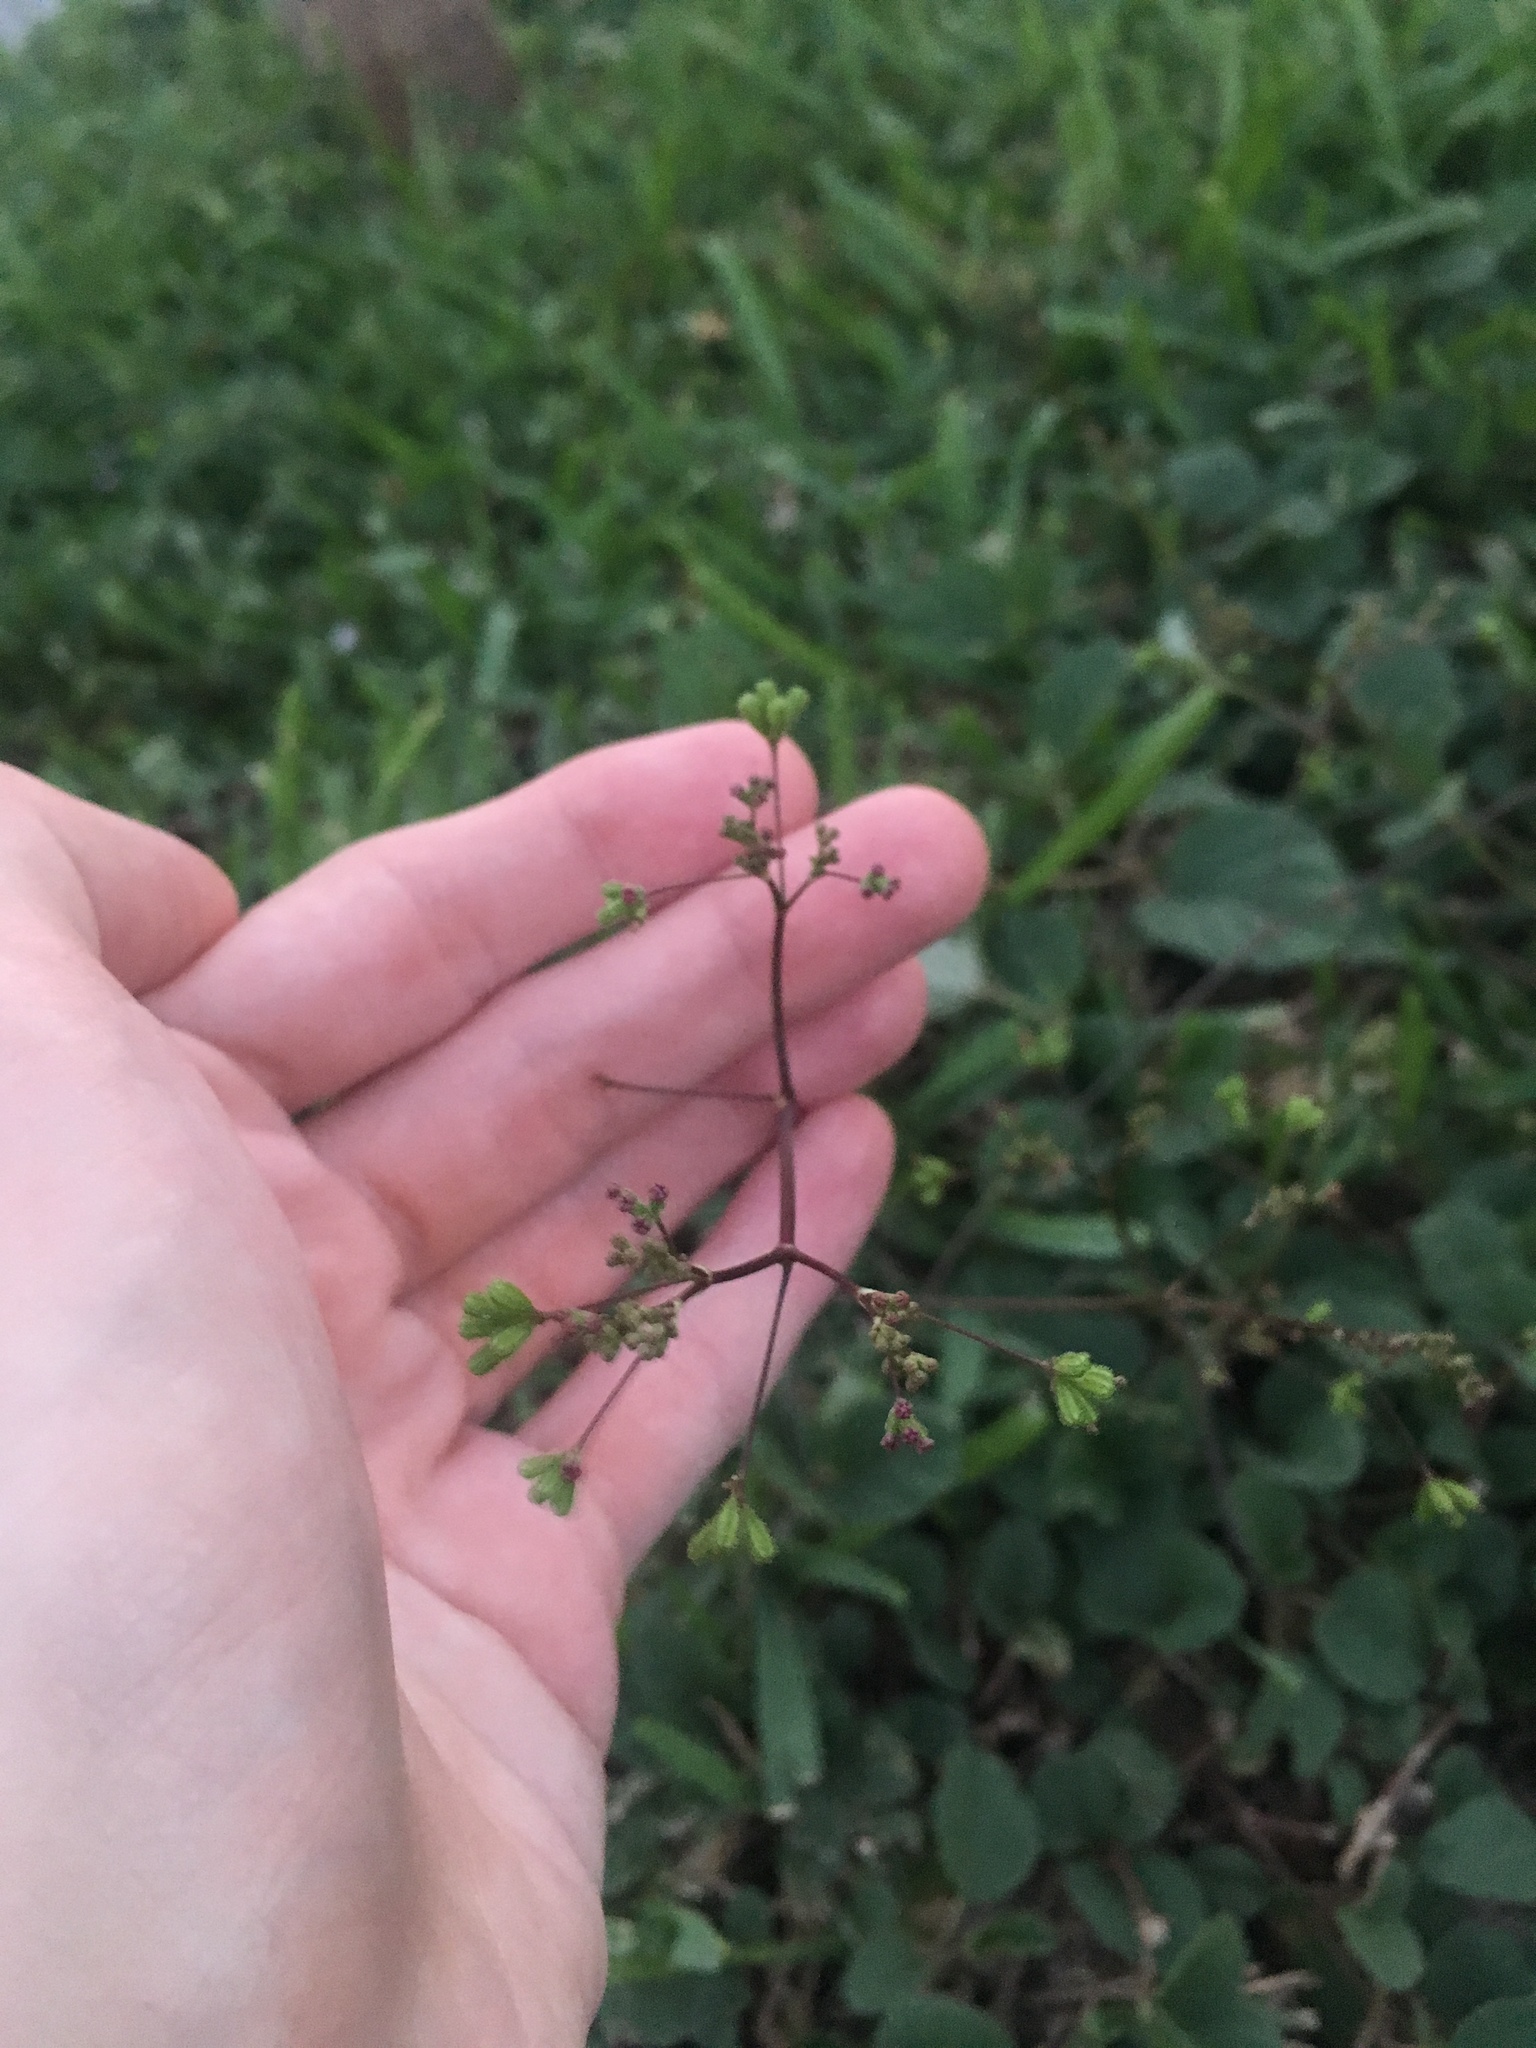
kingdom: Plantae
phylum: Tracheophyta
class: Magnoliopsida
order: Caryophyllales
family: Nyctaginaceae
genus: Boerhavia
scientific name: Boerhavia diffusa
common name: Red spiderling
